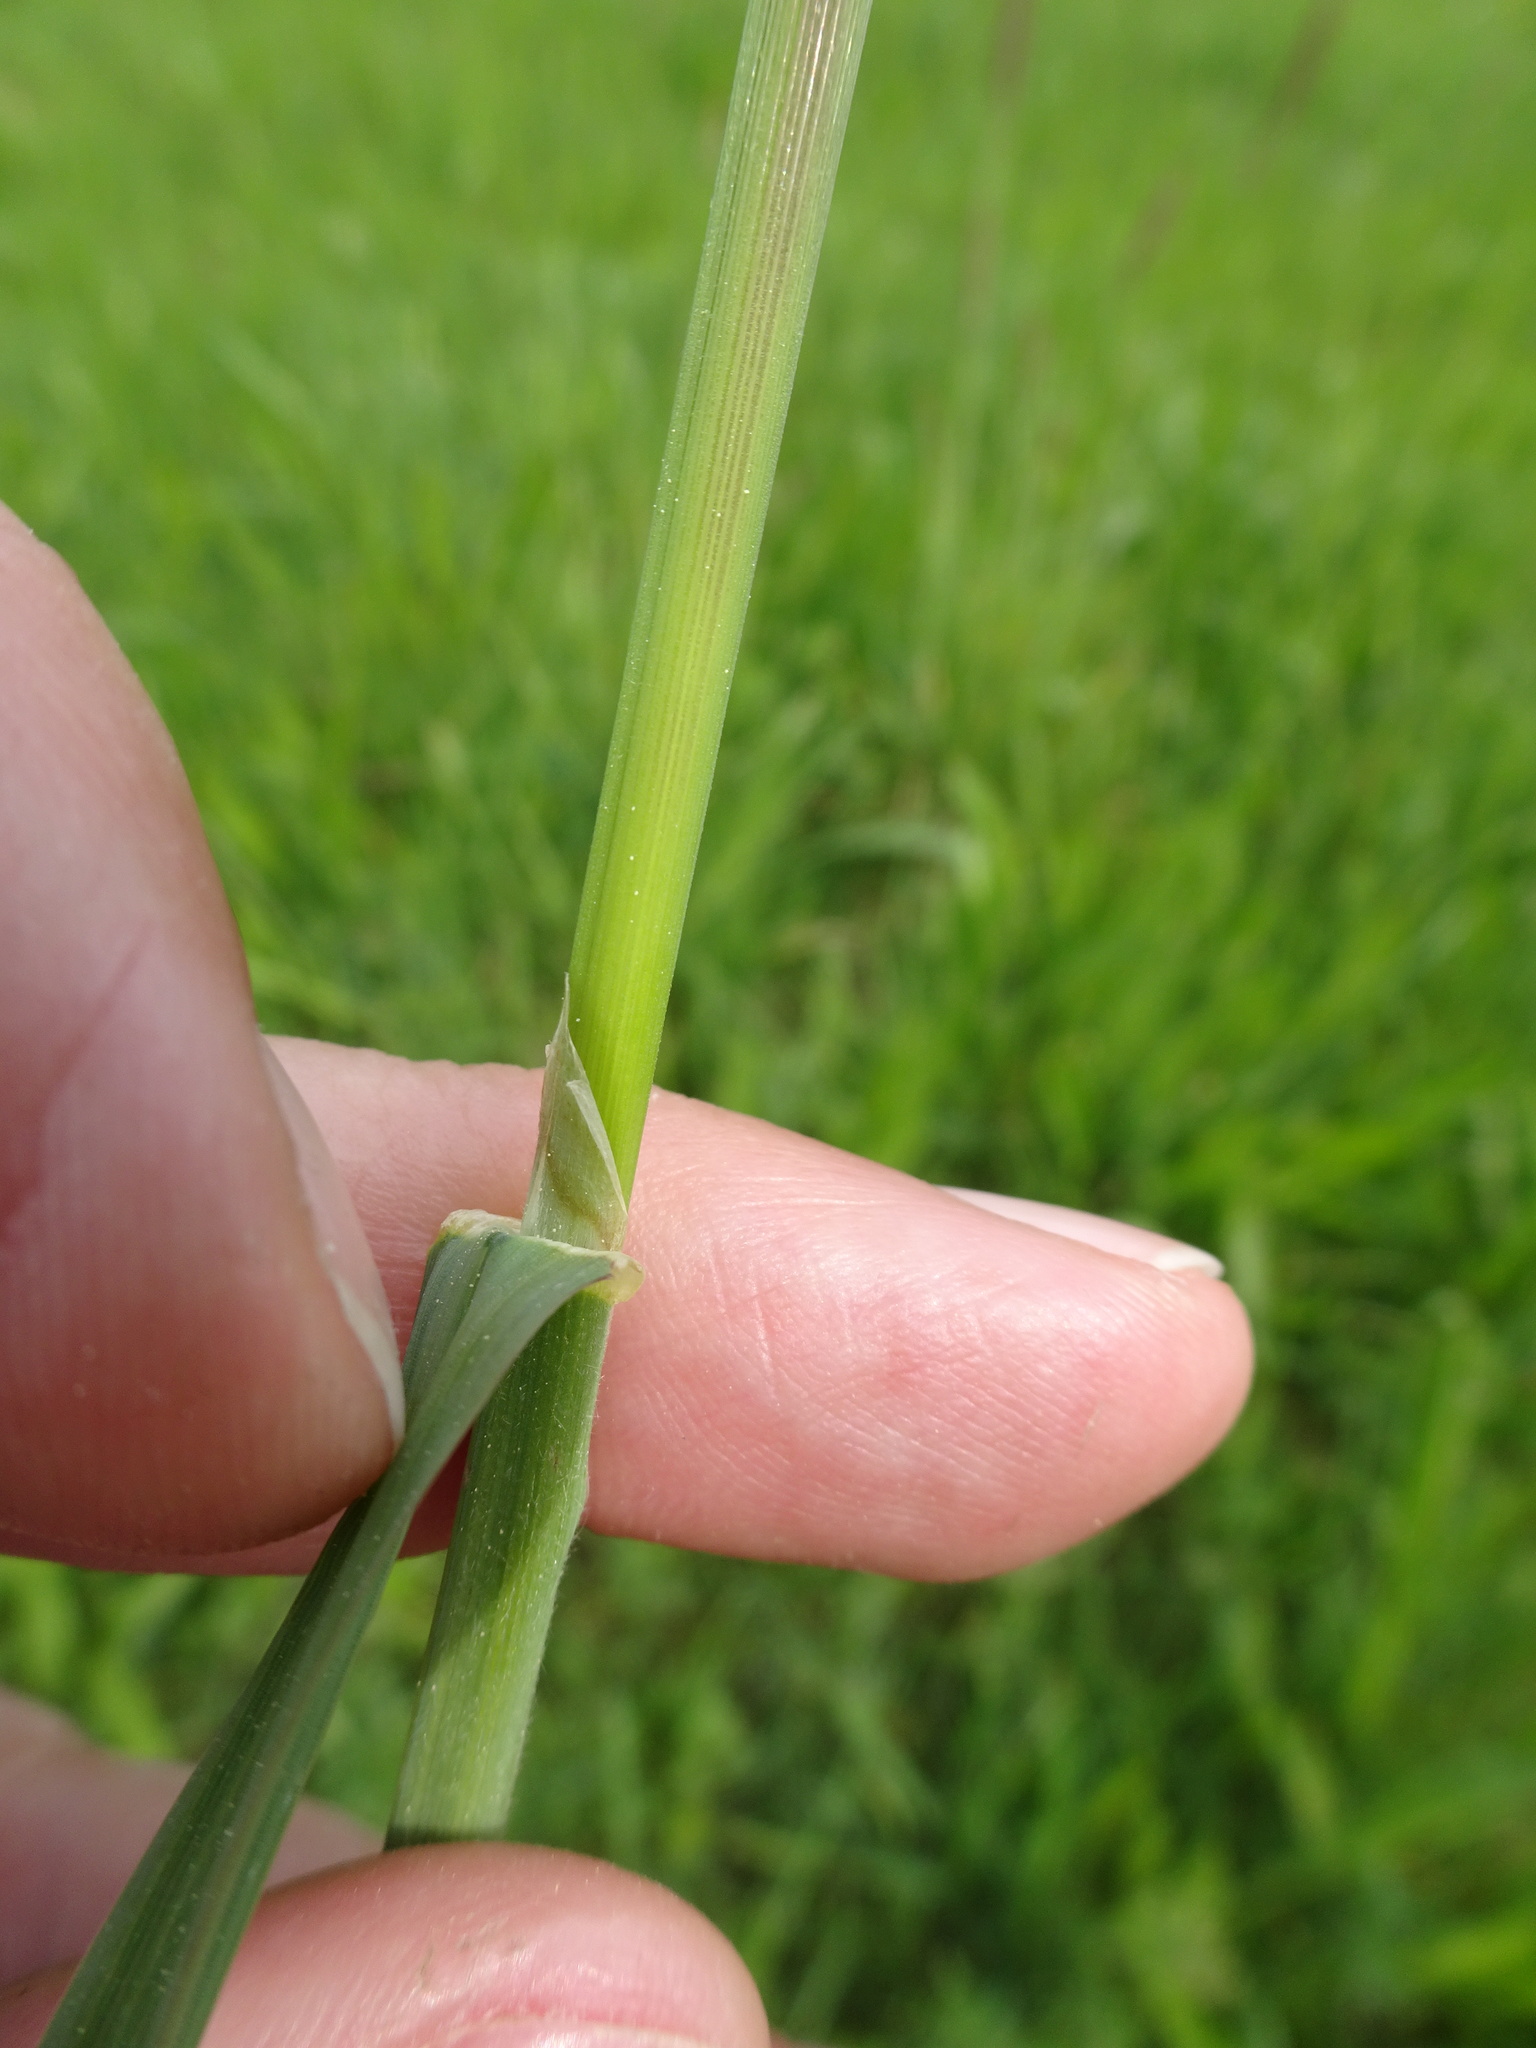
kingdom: Plantae
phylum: Tracheophyta
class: Liliopsida
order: Poales
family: Poaceae
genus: Dactylis
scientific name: Dactylis glomerata
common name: Orchardgrass
